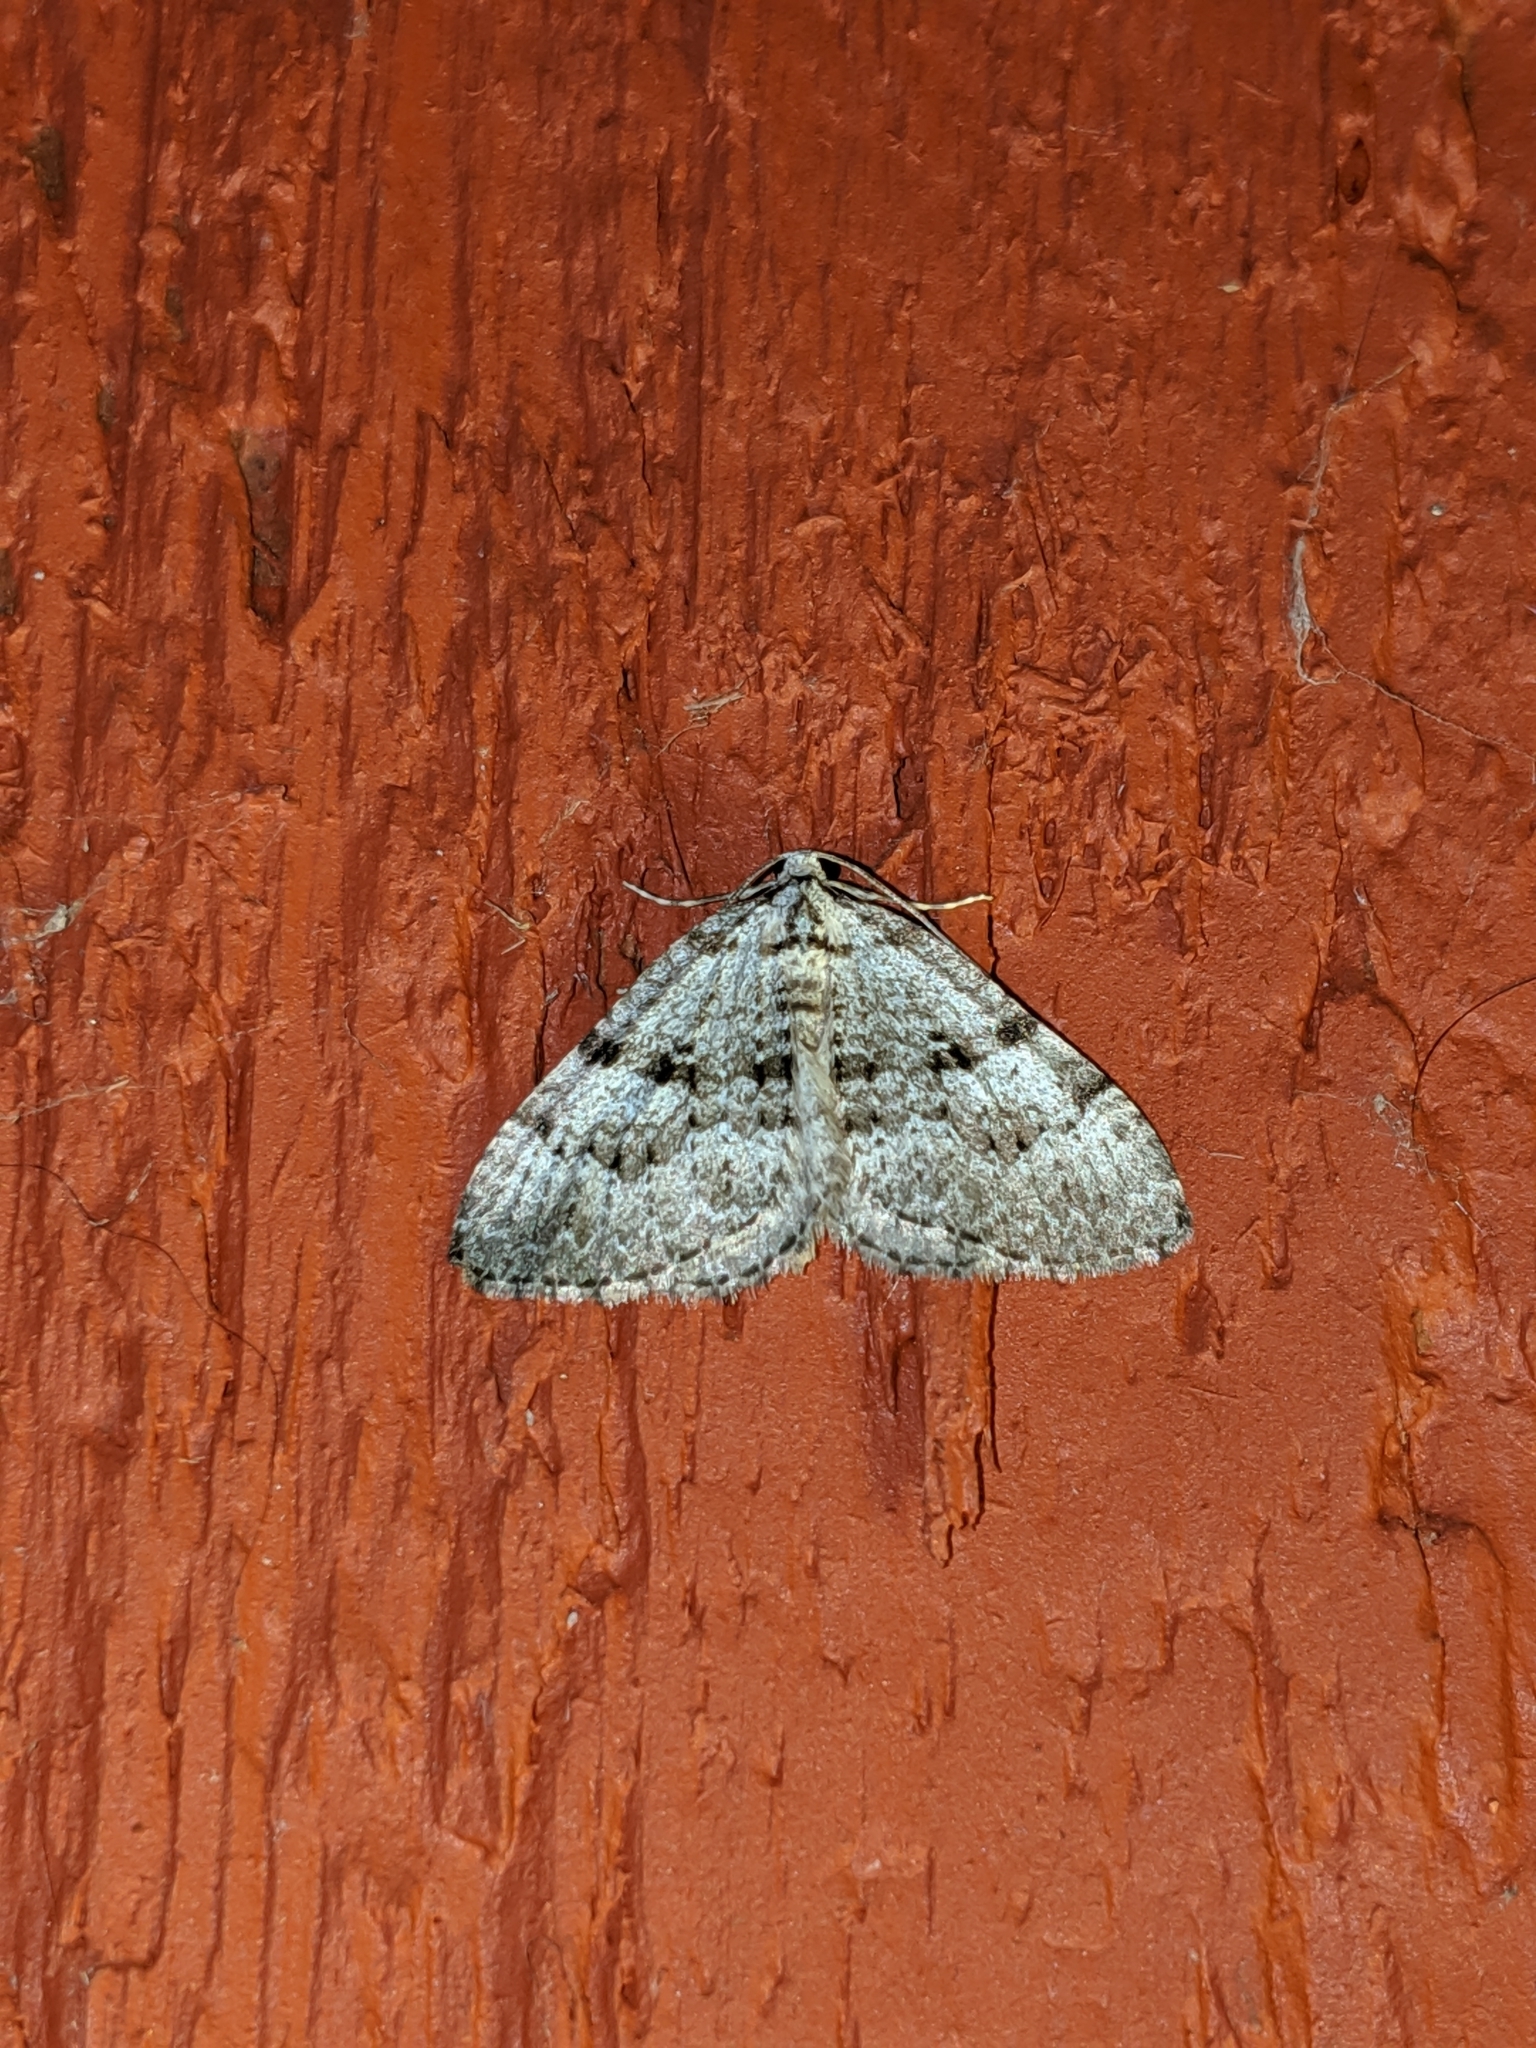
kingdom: Animalia
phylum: Arthropoda
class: Insecta
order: Lepidoptera
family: Geometridae
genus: Perizoma
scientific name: Perizoma curvilinea
